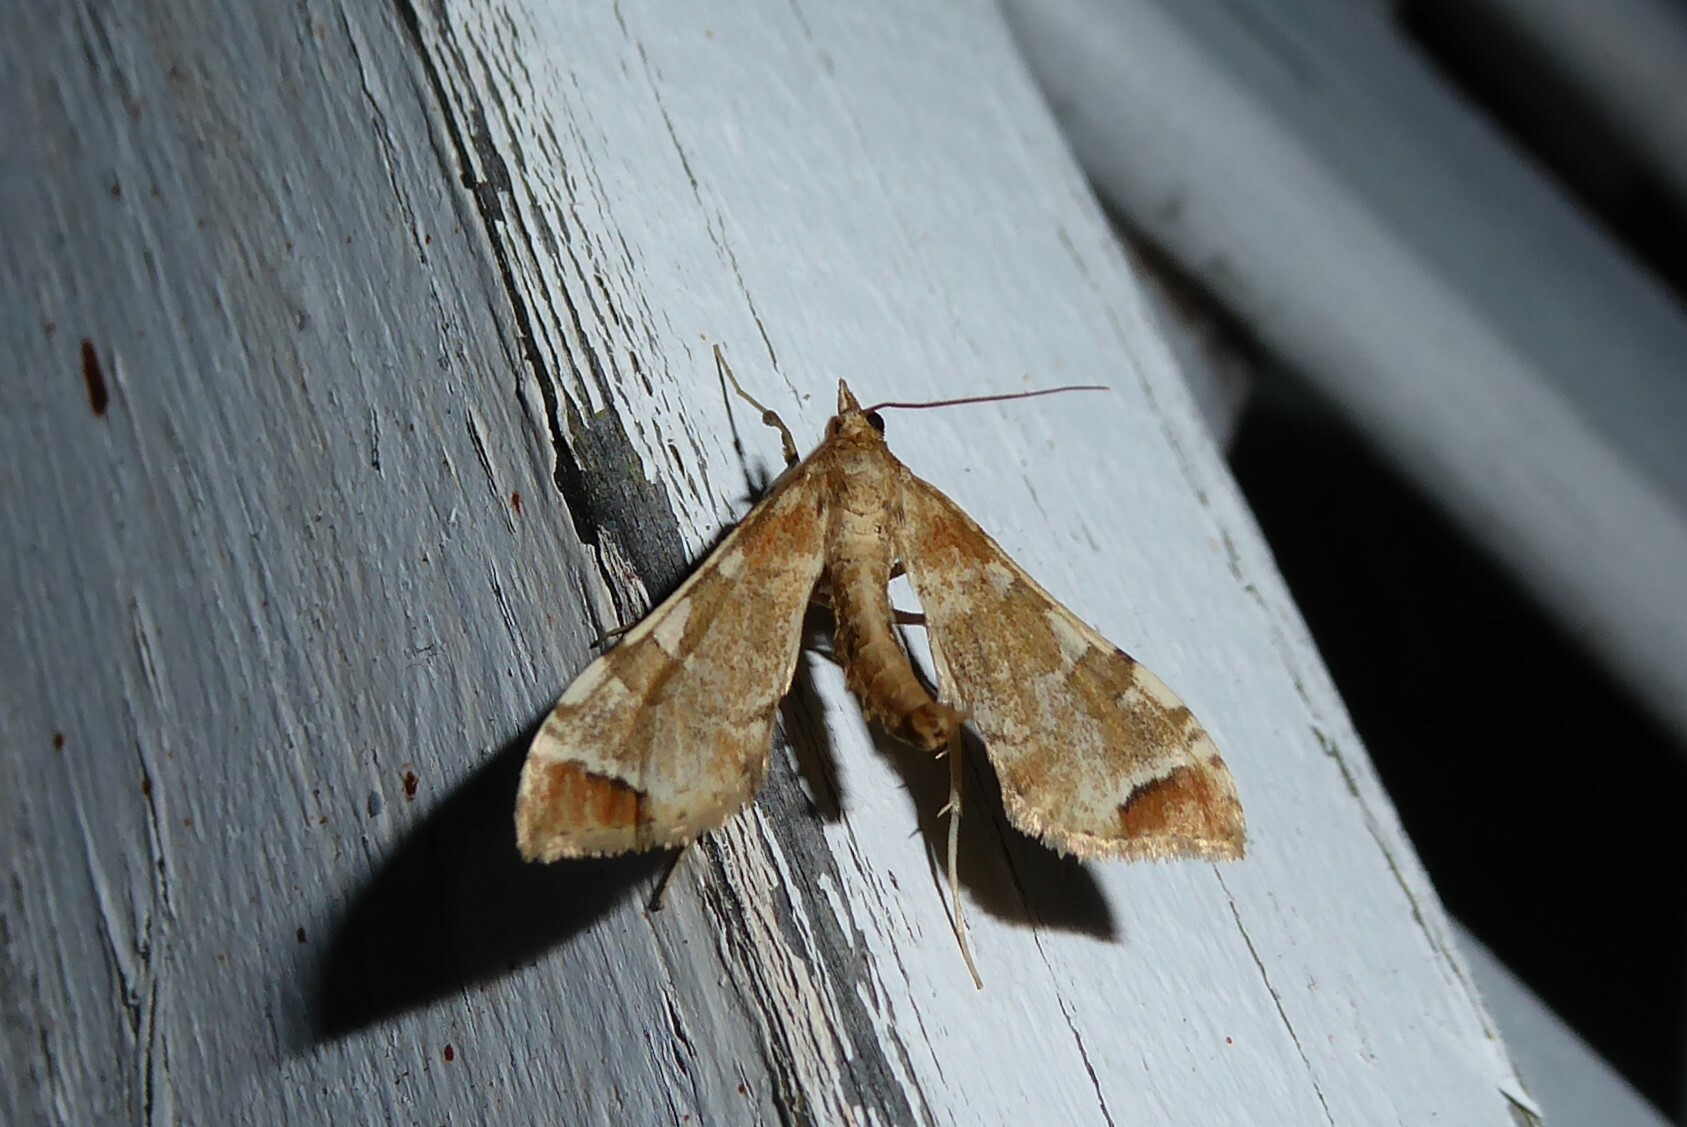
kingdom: Animalia
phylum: Arthropoda
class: Insecta
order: Lepidoptera
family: Crambidae
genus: Sceliodes
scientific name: Sceliodes cordalis
